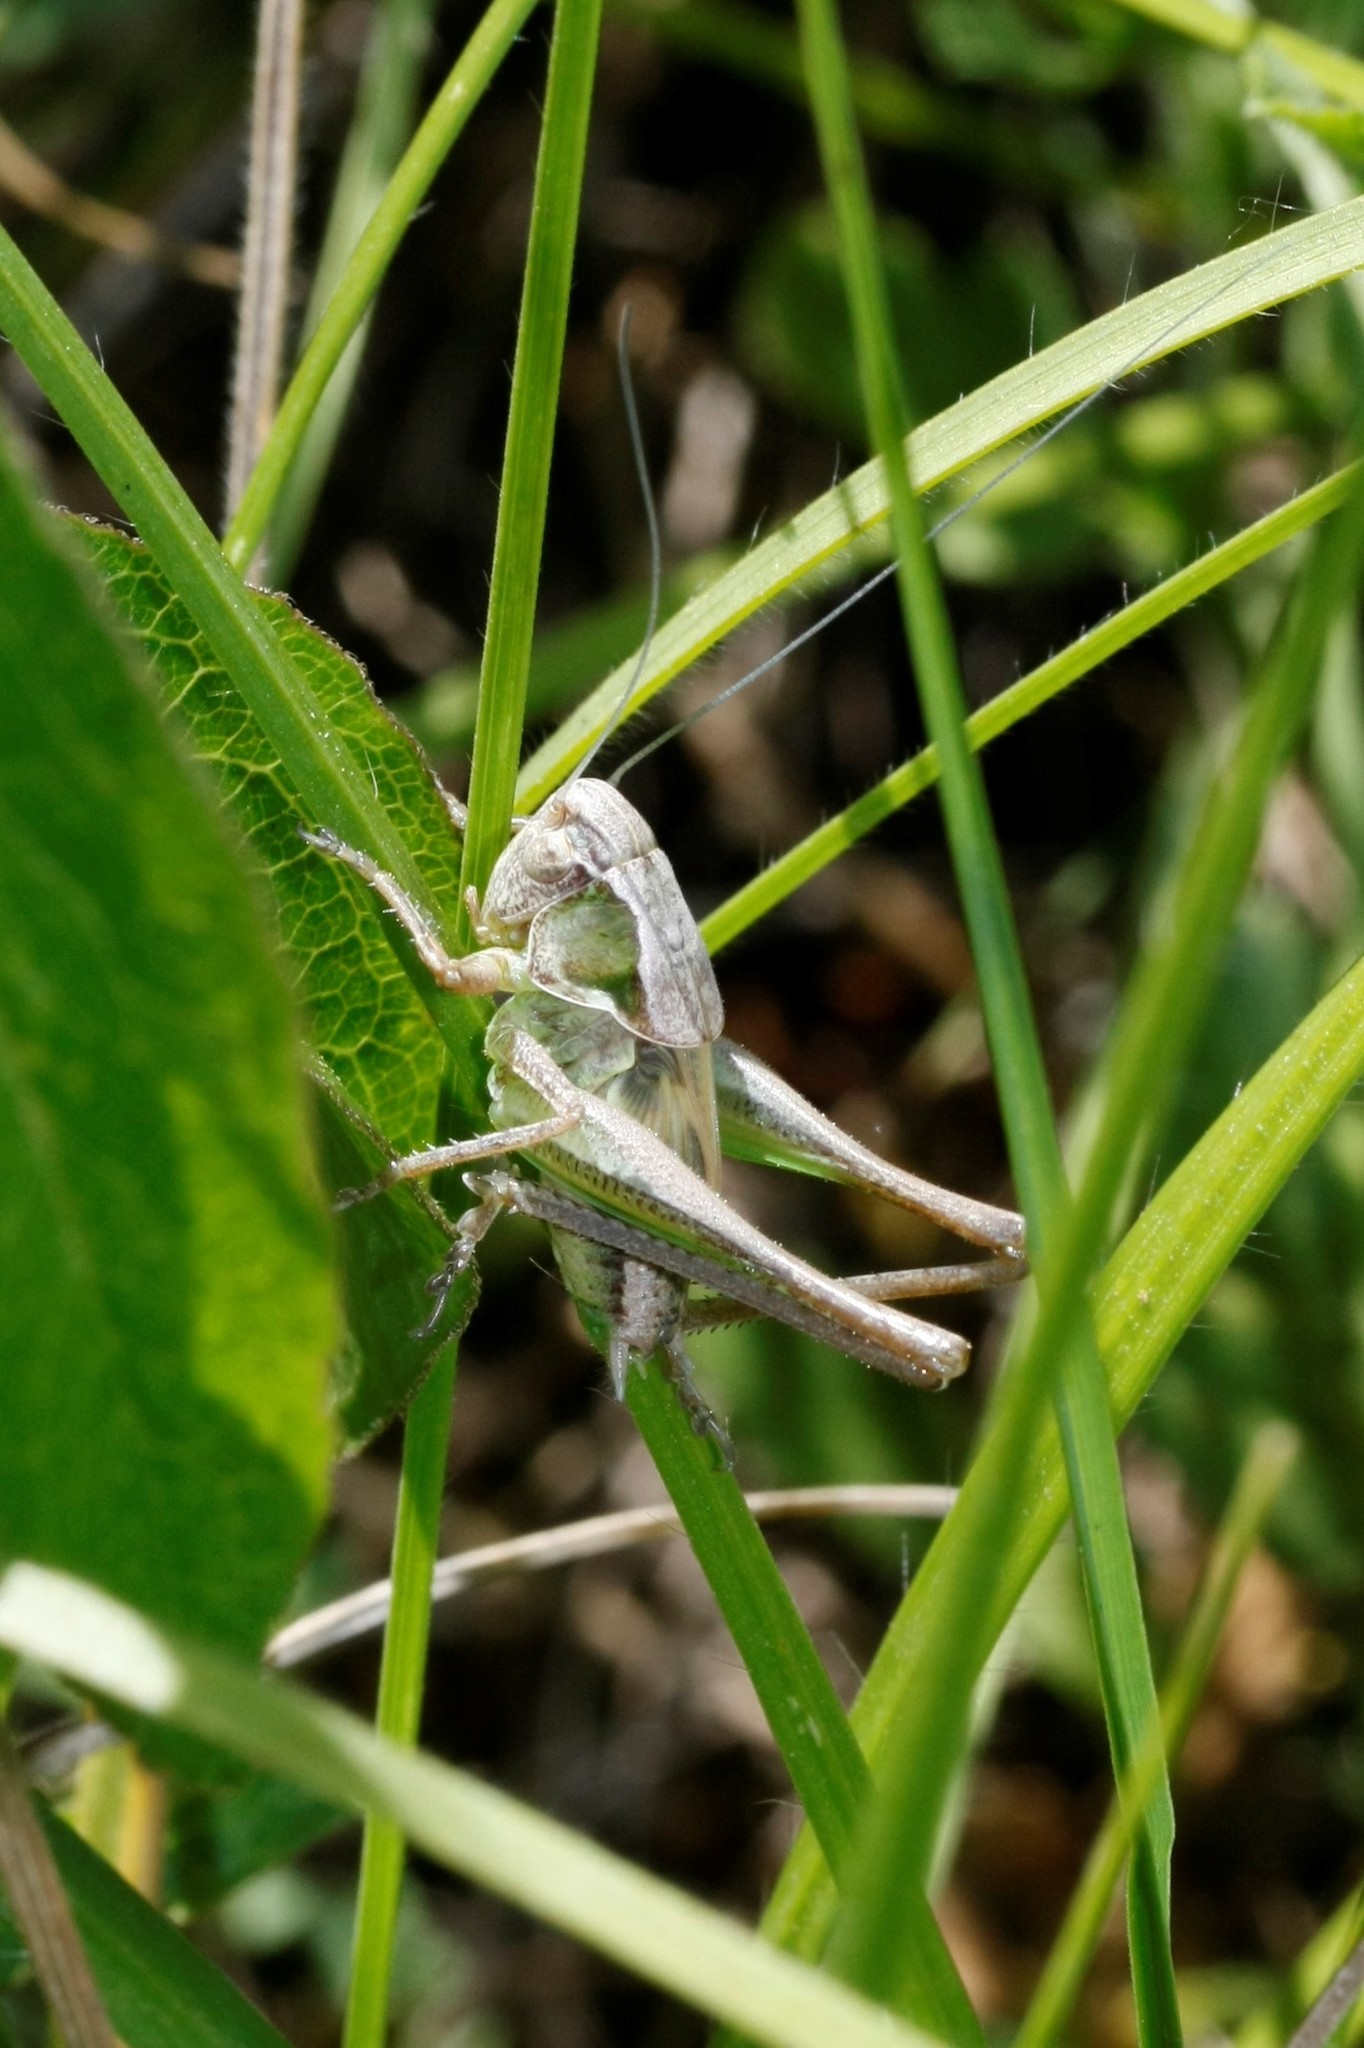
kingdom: Animalia
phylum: Arthropoda
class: Insecta
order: Orthoptera
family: Tettigoniidae
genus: Platycleis
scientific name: Platycleis albopunctata
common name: Grey bush-cricket
